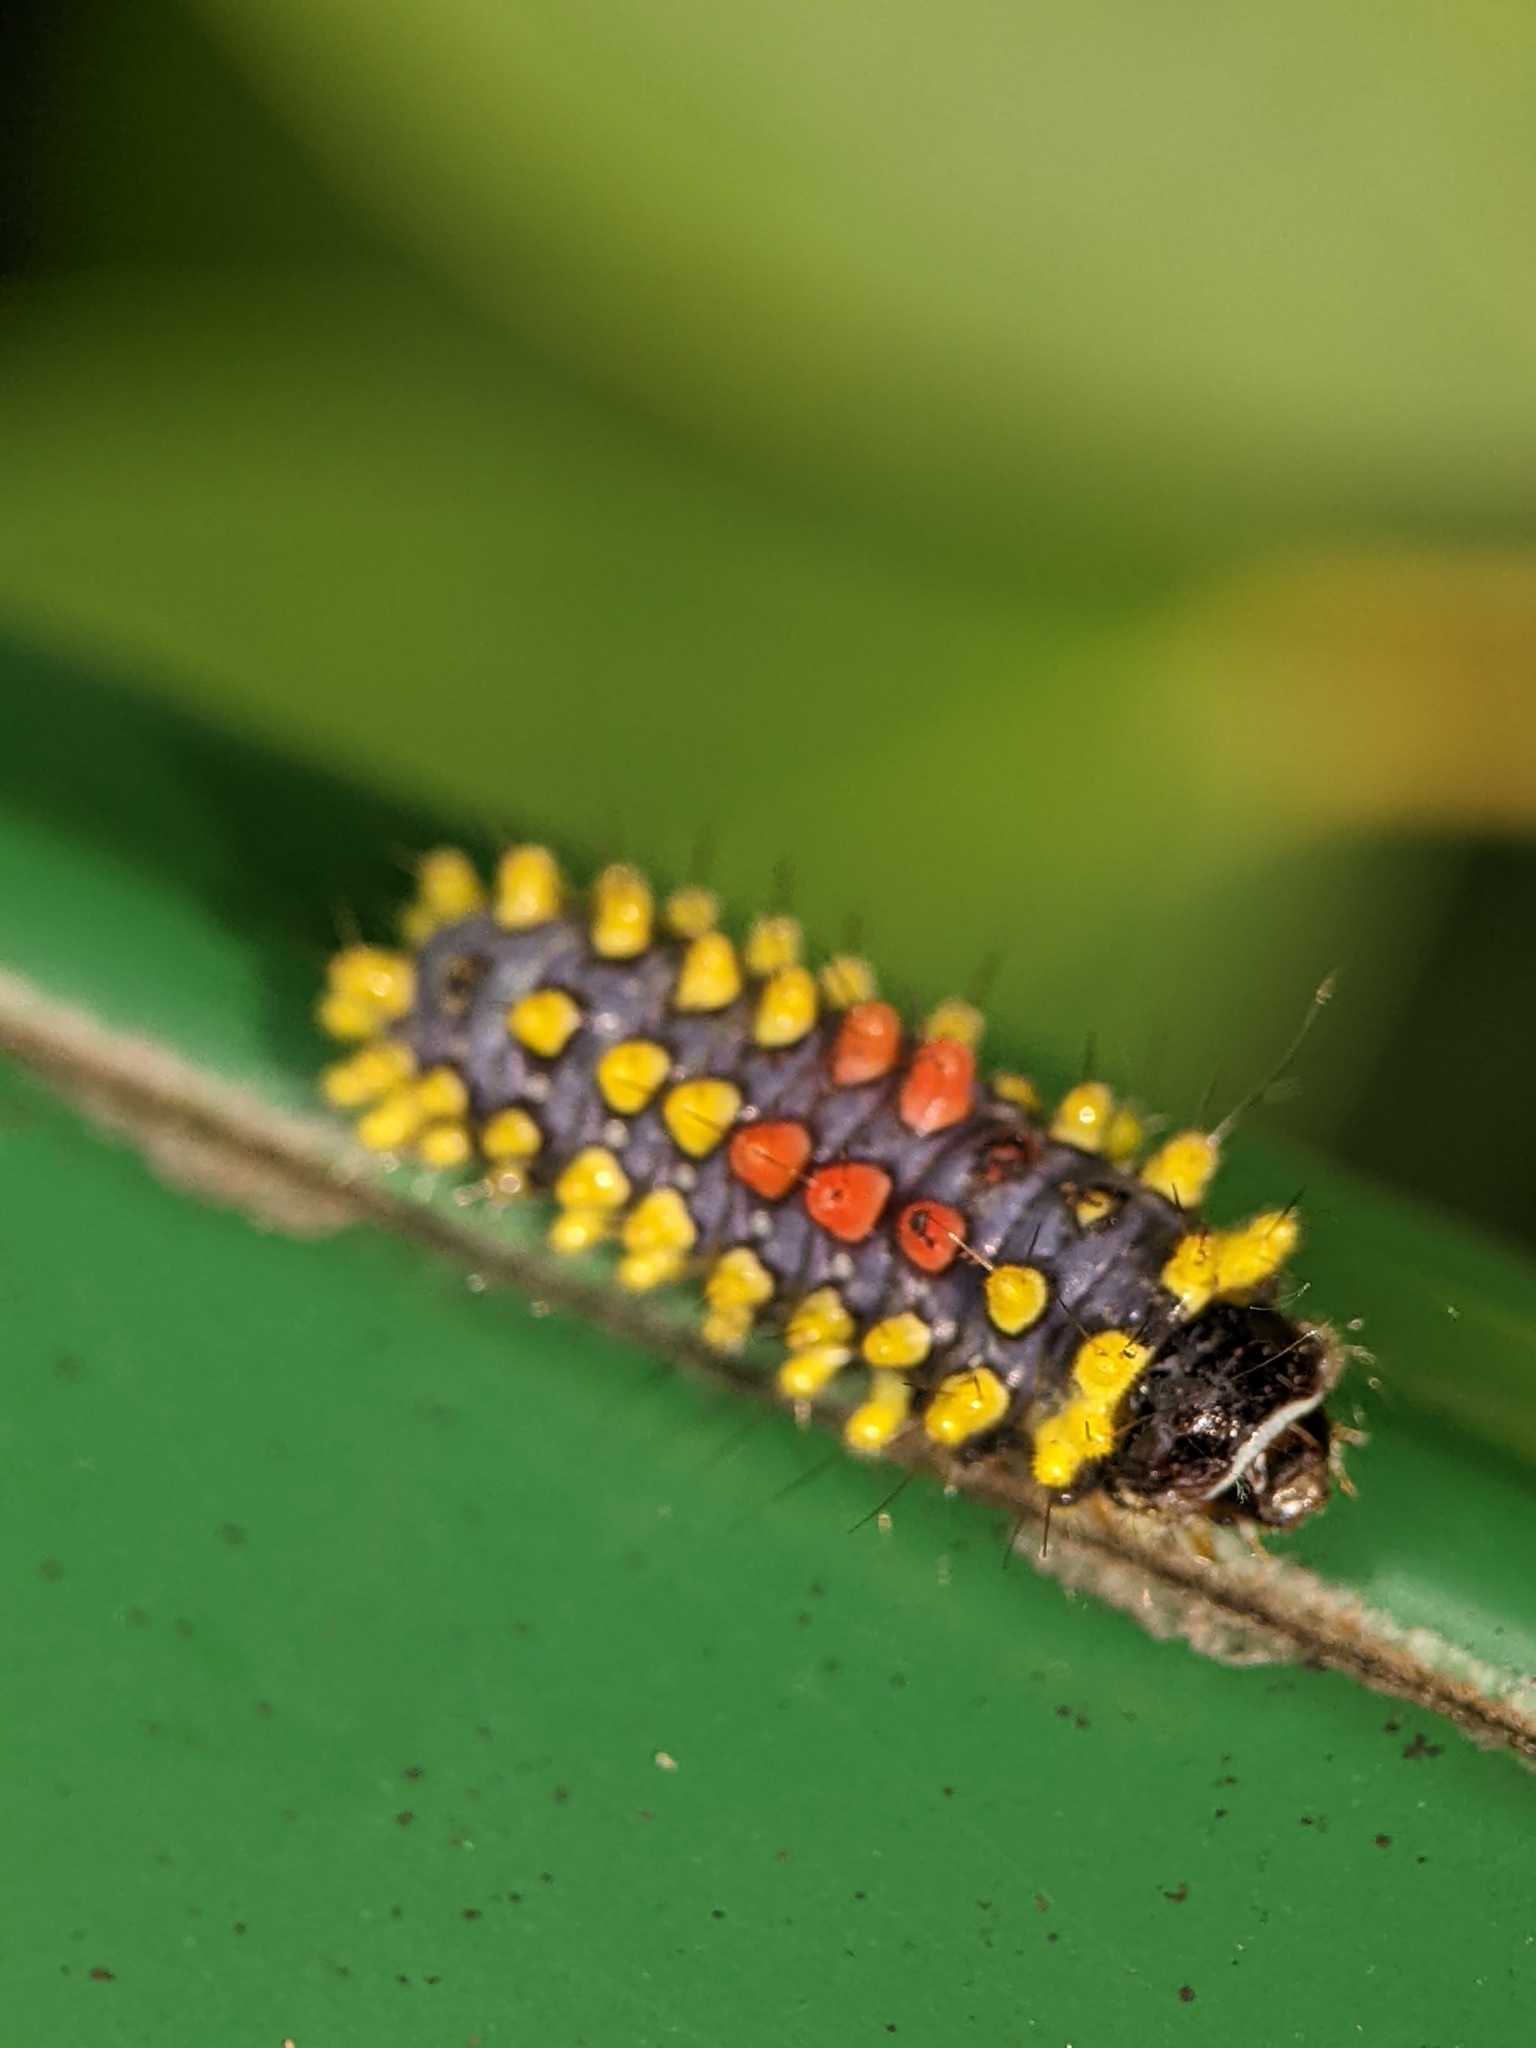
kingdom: Animalia
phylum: Arthropoda
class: Insecta
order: Lepidoptera
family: Zygaenidae
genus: Cyclosia
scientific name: Cyclosia papilionaris
